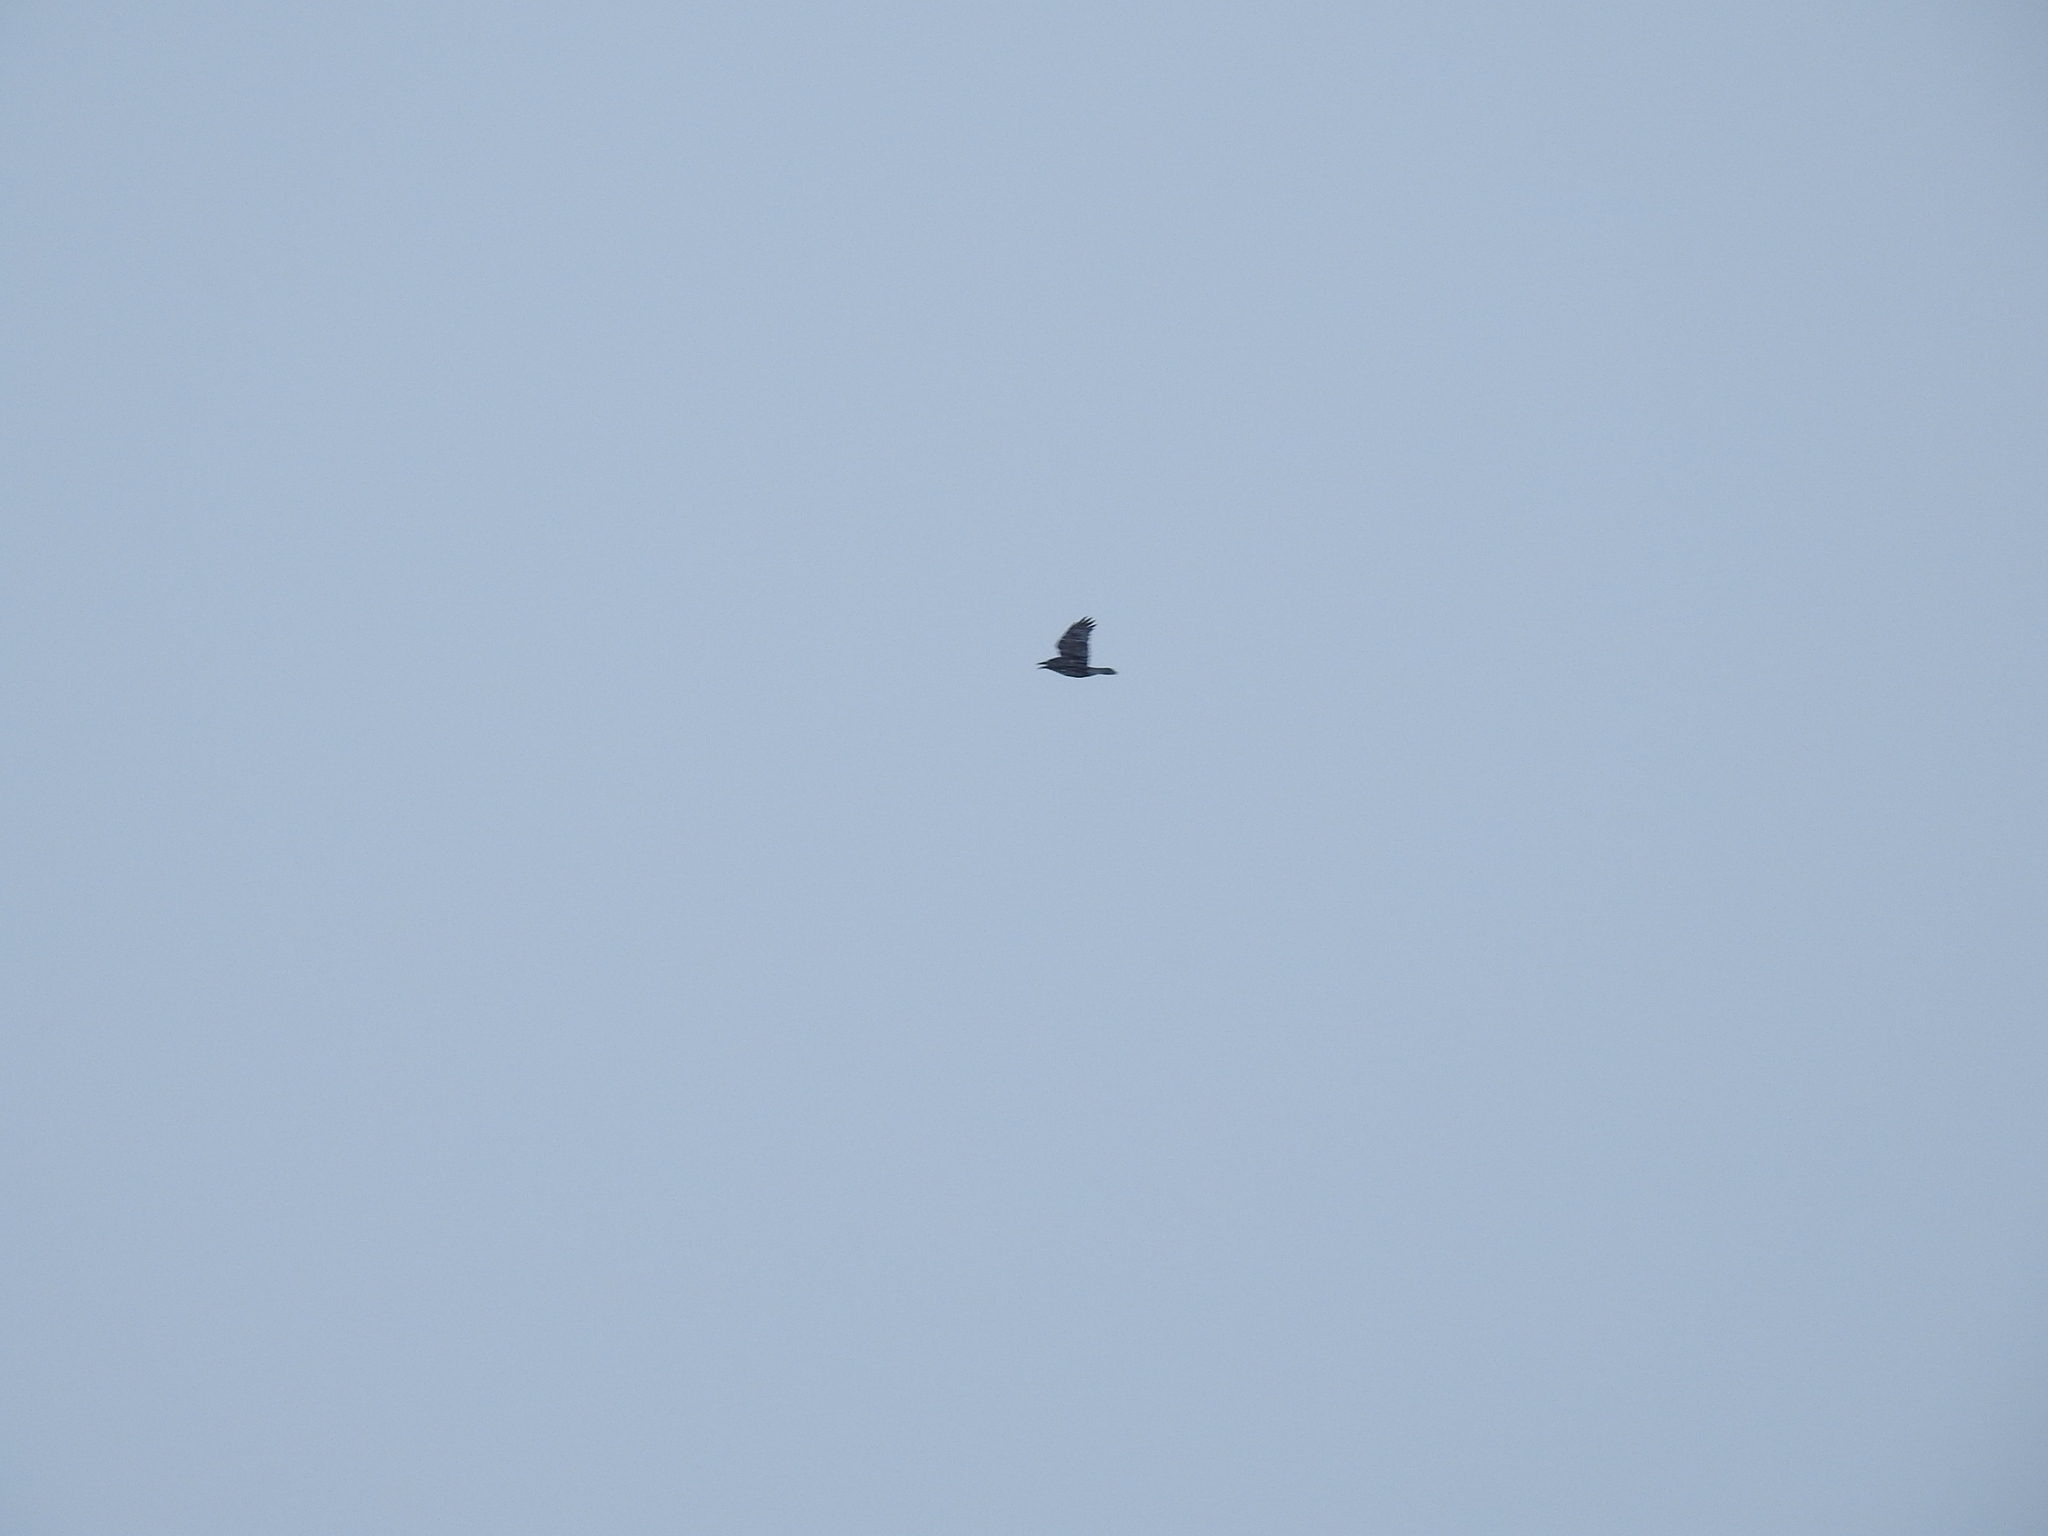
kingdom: Animalia
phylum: Chordata
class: Aves
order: Passeriformes
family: Corvidae
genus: Corvus
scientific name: Corvus corax
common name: Common raven
